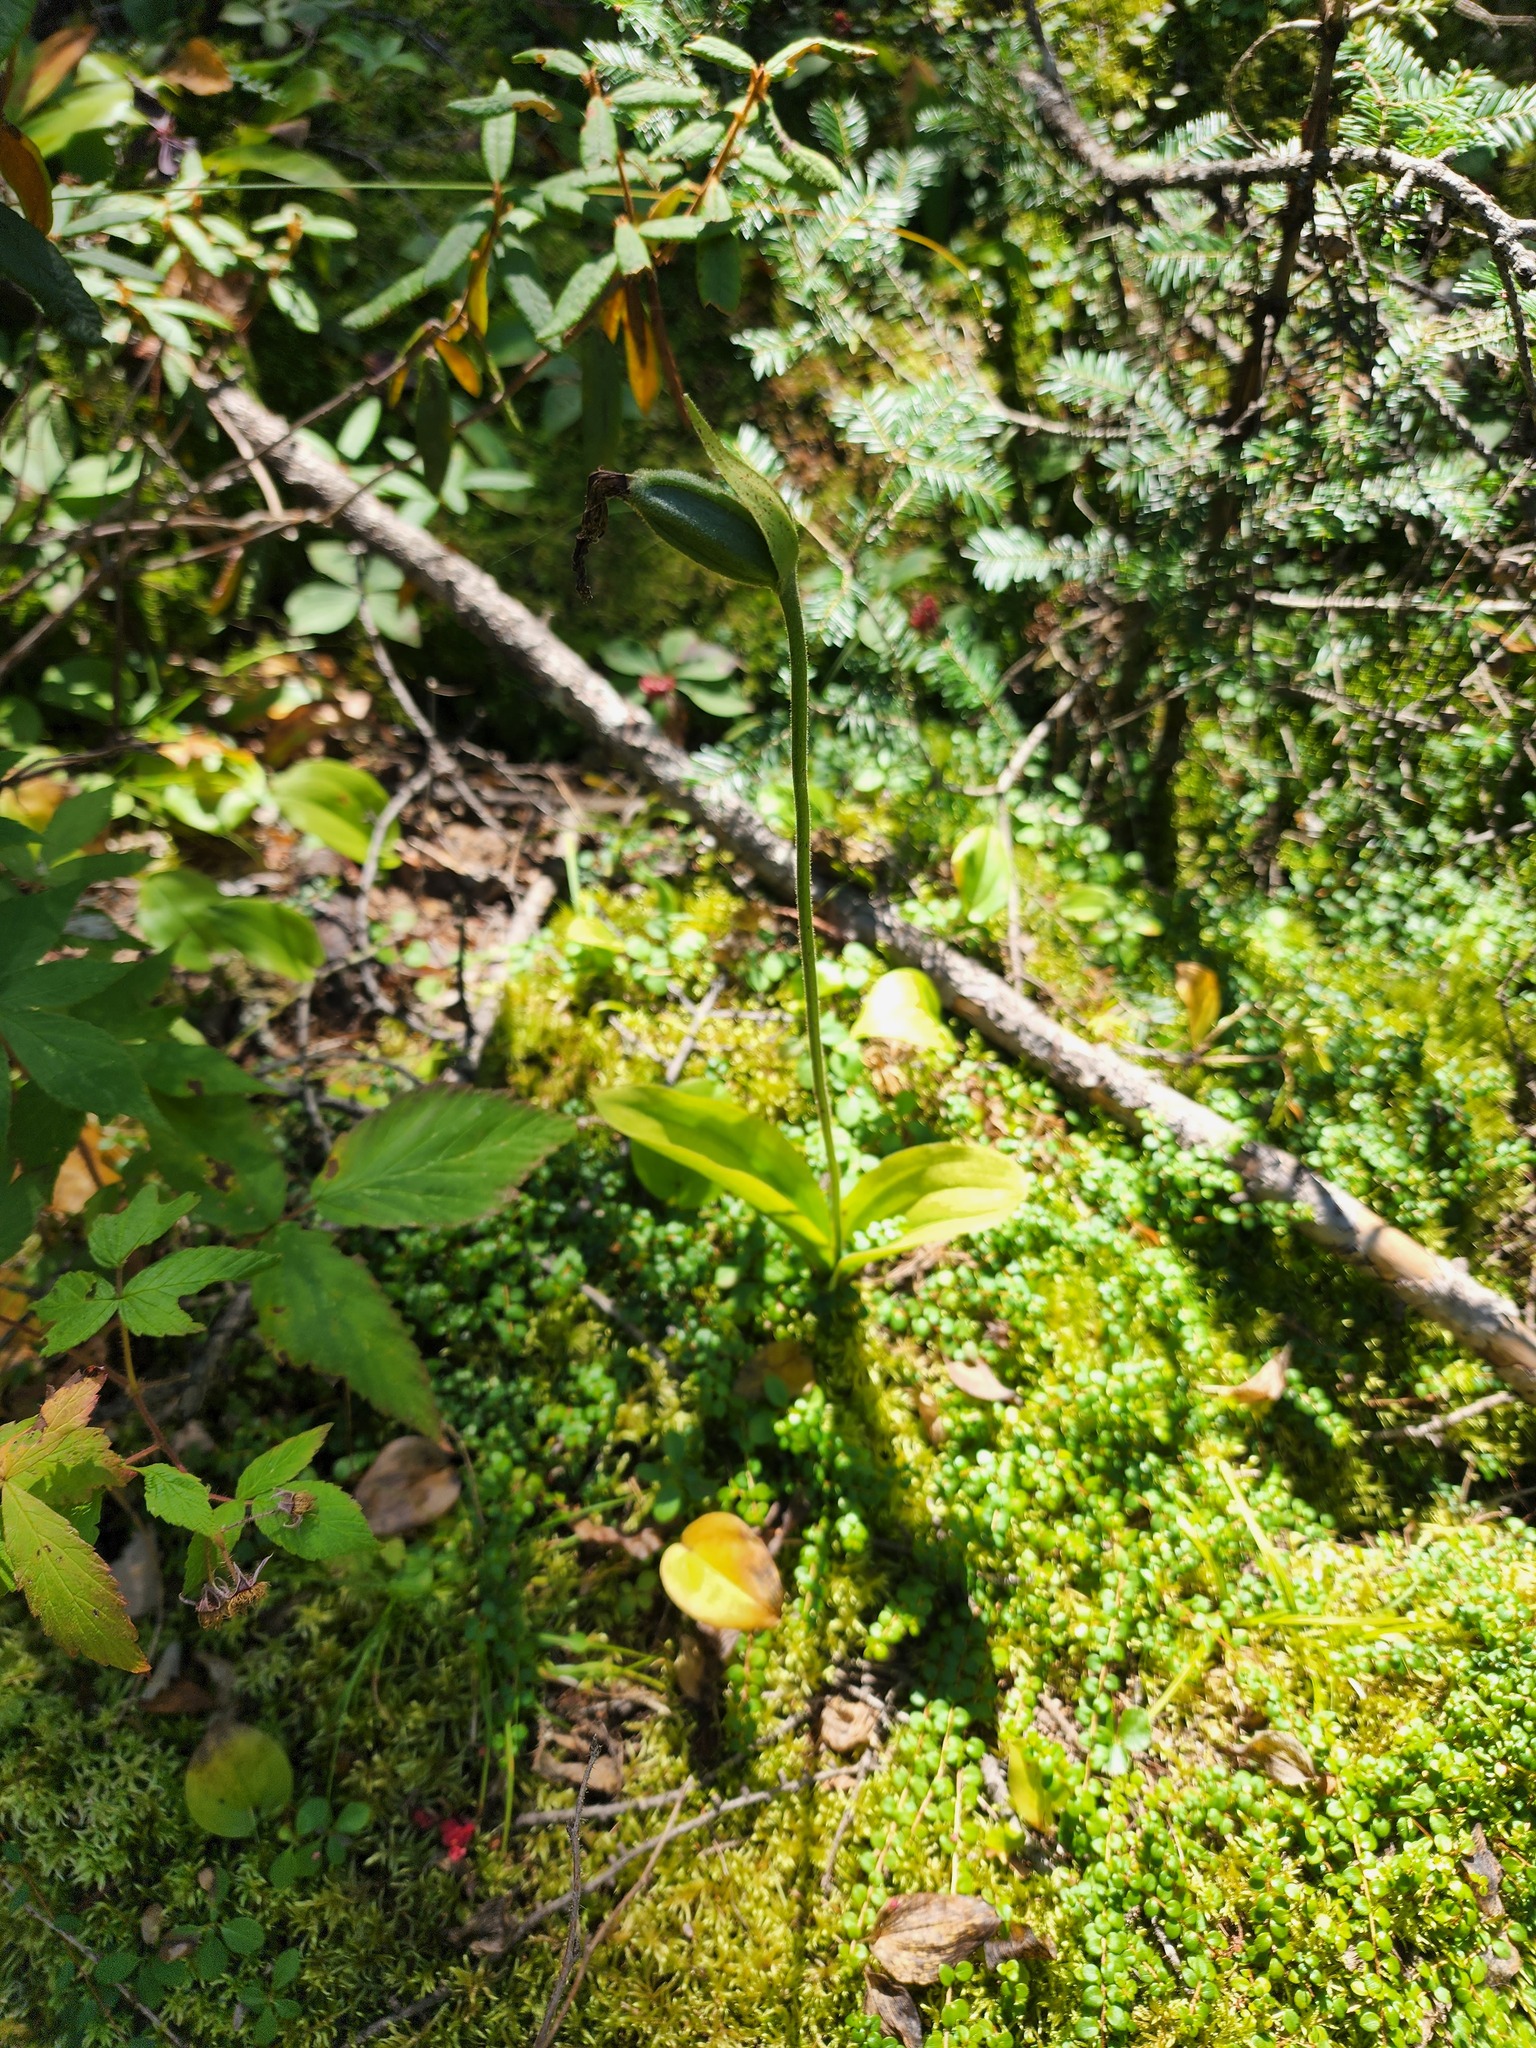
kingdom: Plantae
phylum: Tracheophyta
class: Liliopsida
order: Asparagales
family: Orchidaceae
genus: Cypripedium
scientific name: Cypripedium acaule
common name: Pink lady's-slipper
